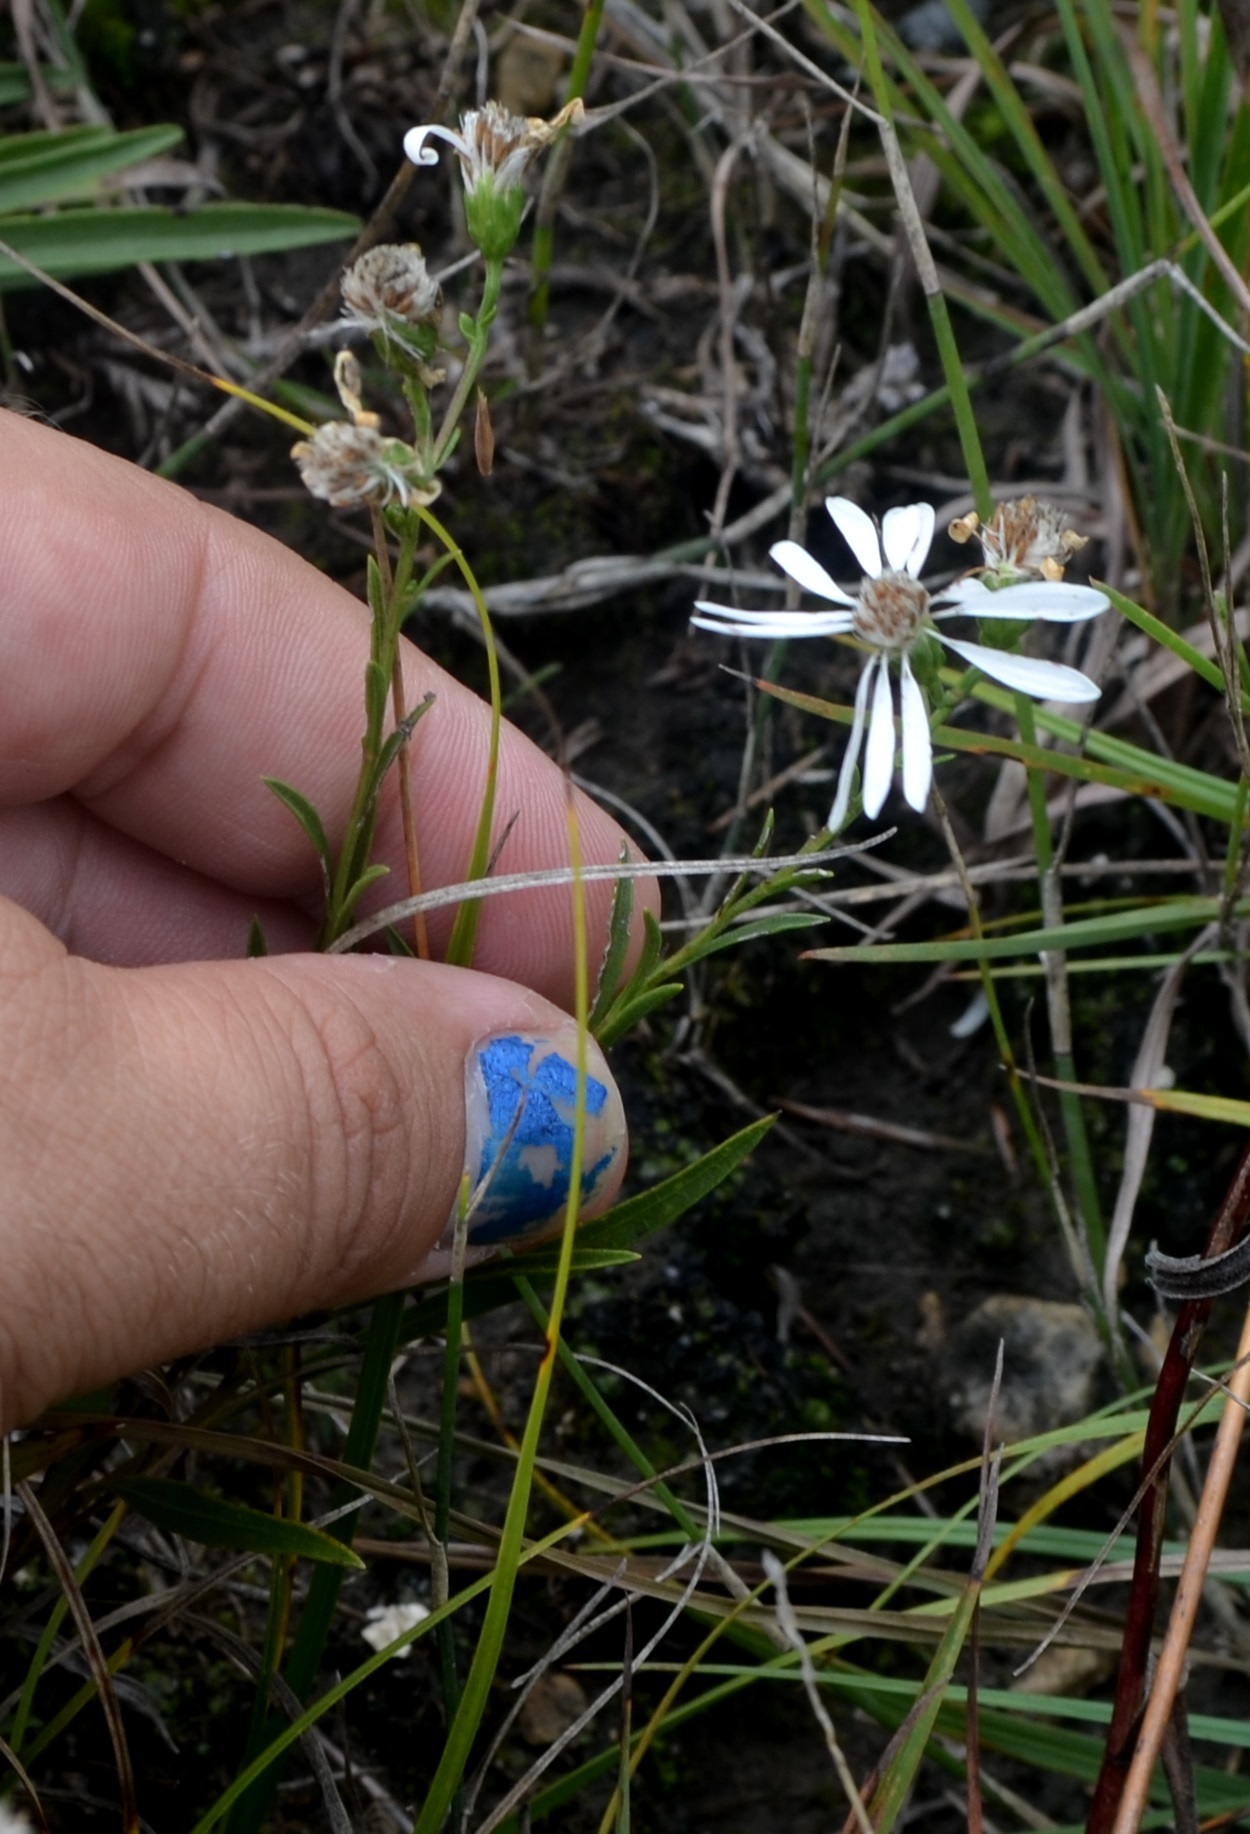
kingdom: Plantae
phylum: Tracheophyta
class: Magnoliopsida
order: Asterales
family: Asteraceae
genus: Solidago
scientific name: Solidago ptarmicoides
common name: White flat-top goldenrod
